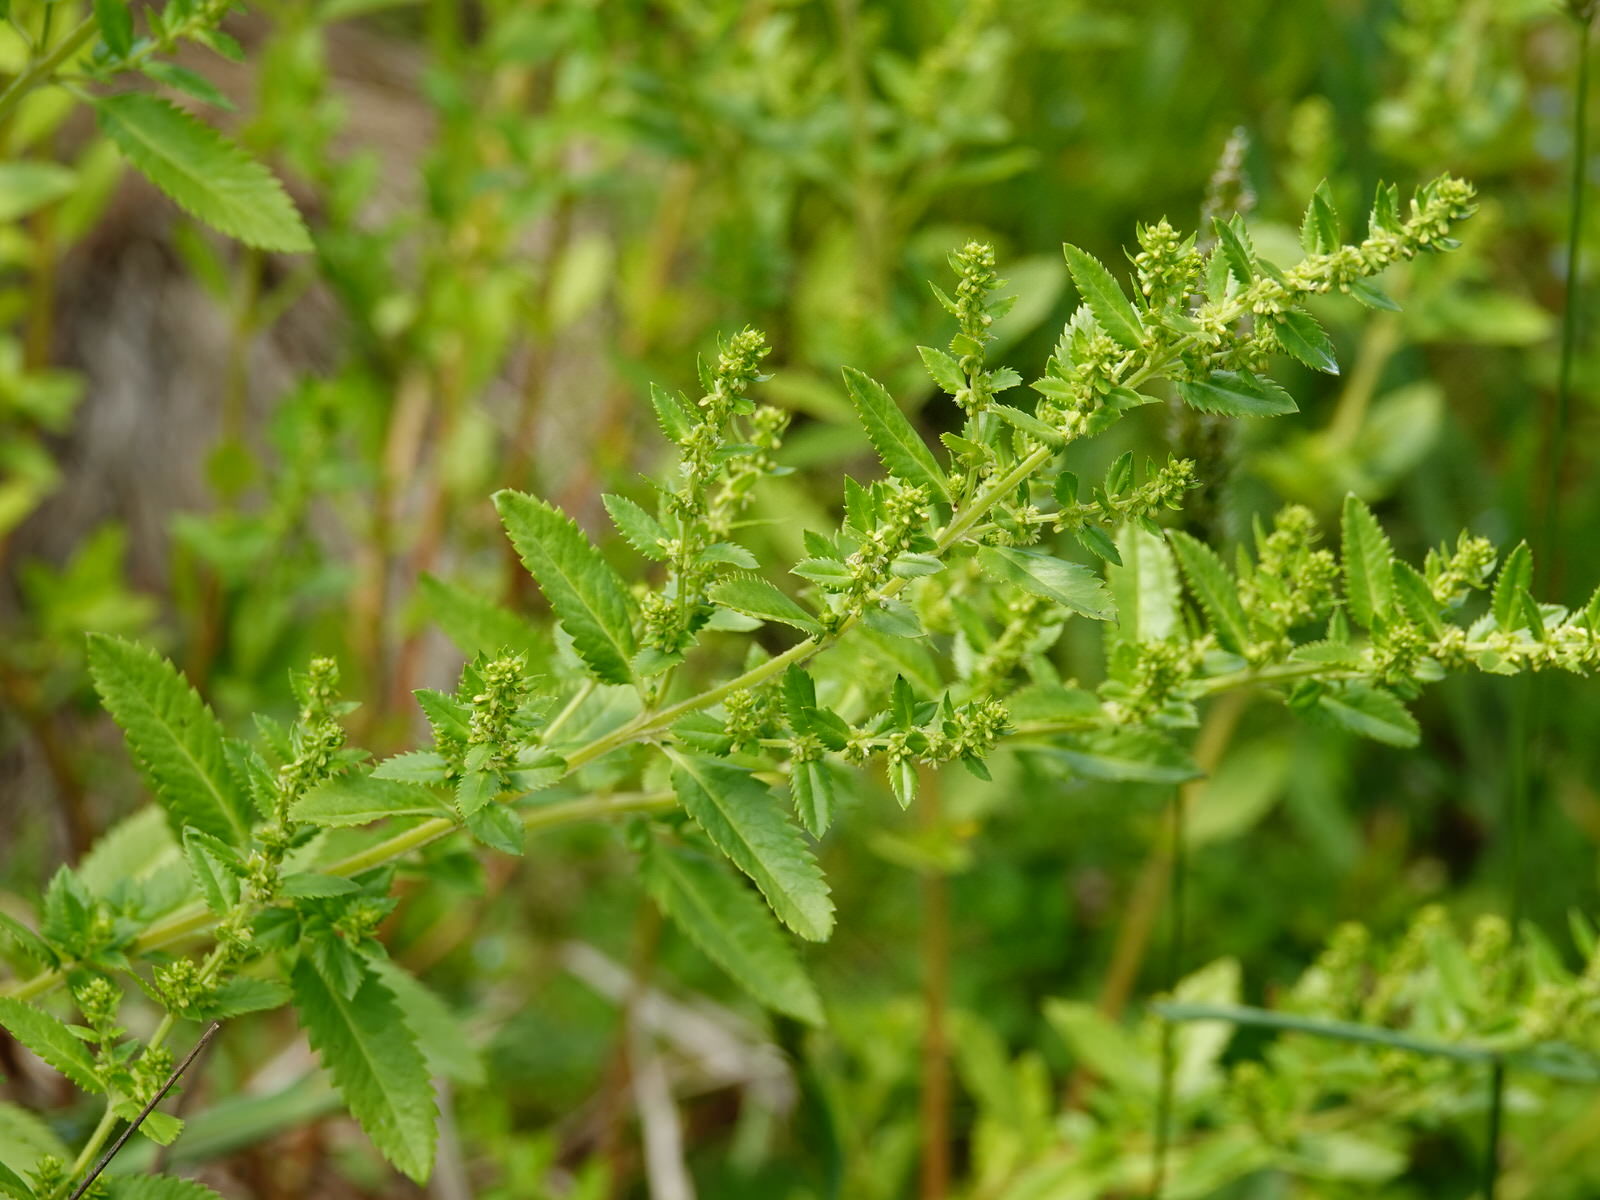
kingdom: Plantae
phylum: Tracheophyta
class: Magnoliopsida
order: Saxifragales
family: Haloragaceae
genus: Haloragis
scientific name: Haloragis erecta
